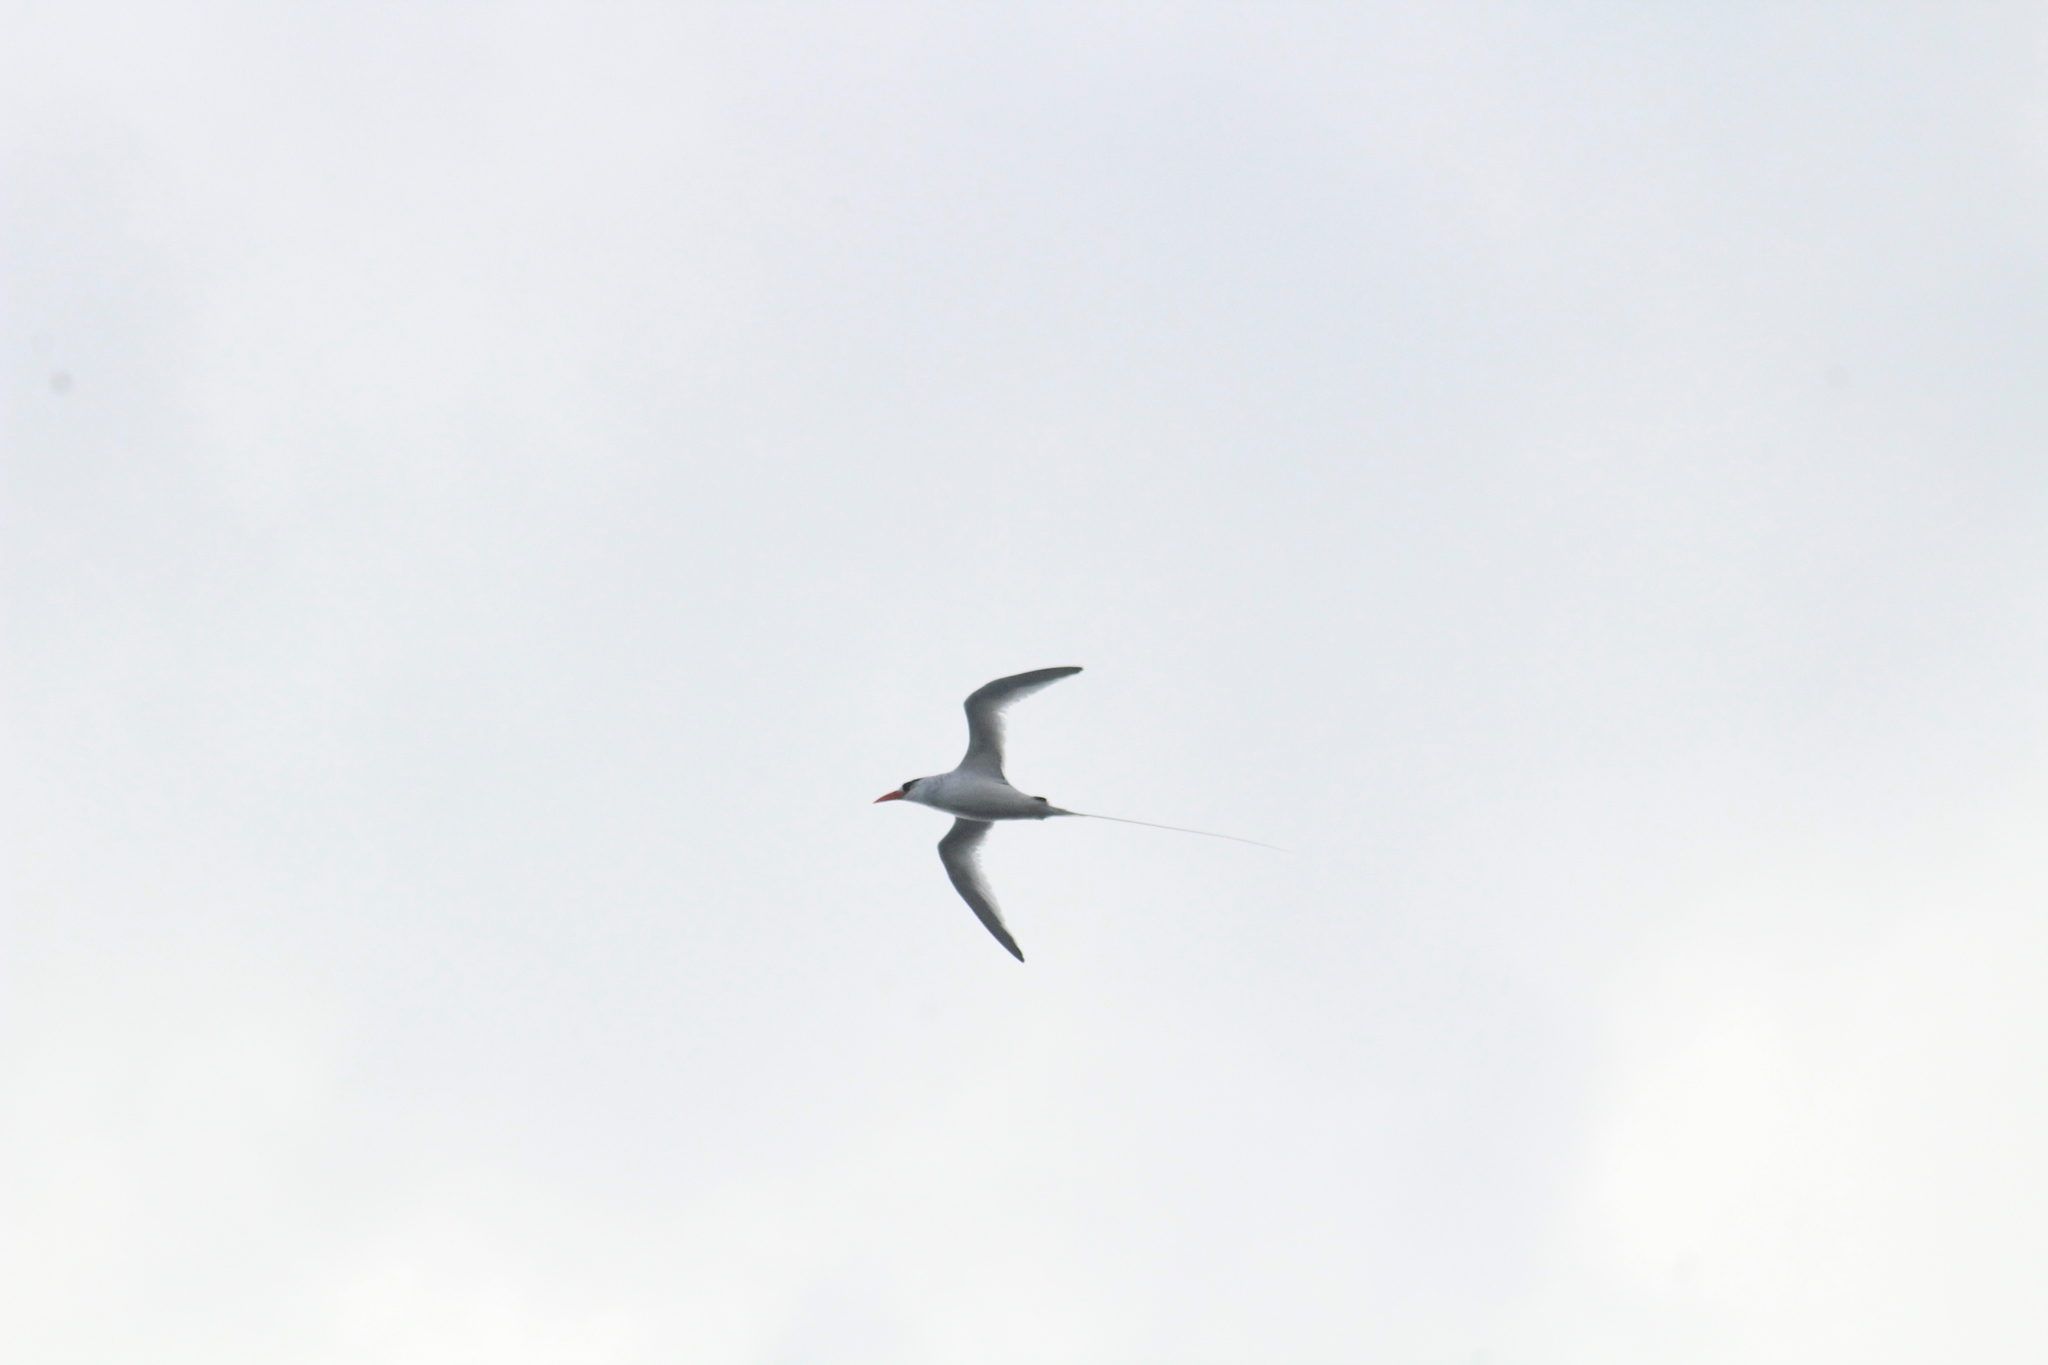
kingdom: Animalia
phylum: Chordata
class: Aves
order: Phaethontiformes
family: Phaethontidae
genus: Phaethon
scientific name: Phaethon aethereus
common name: Red-billed tropicbird
